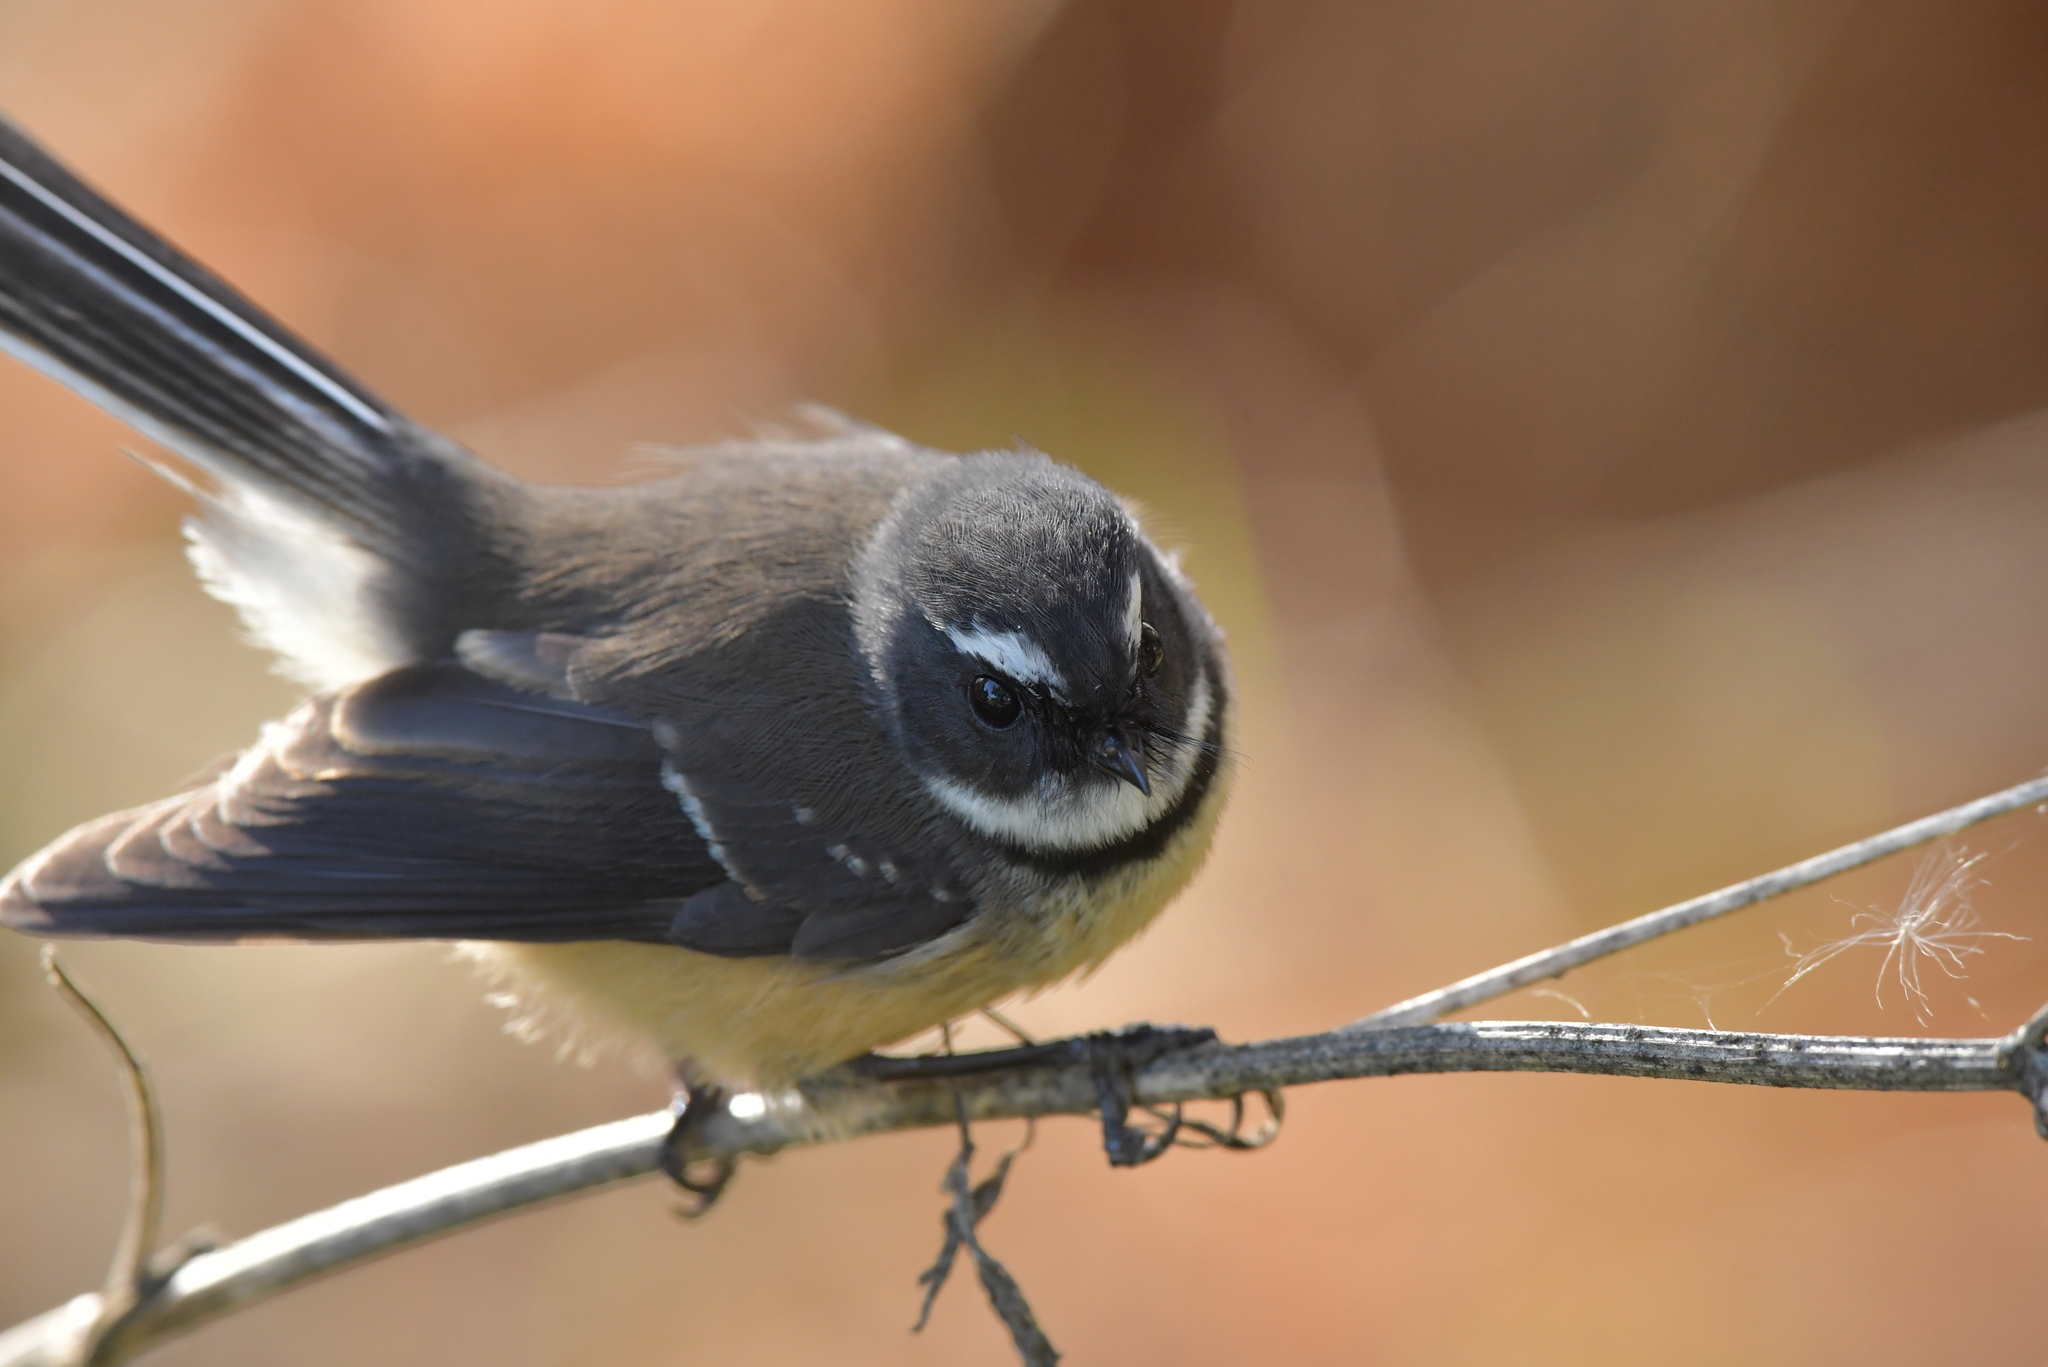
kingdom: Animalia
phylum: Chordata
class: Aves
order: Passeriformes
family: Rhipiduridae
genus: Rhipidura
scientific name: Rhipidura fuliginosa
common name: New zealand fantail
